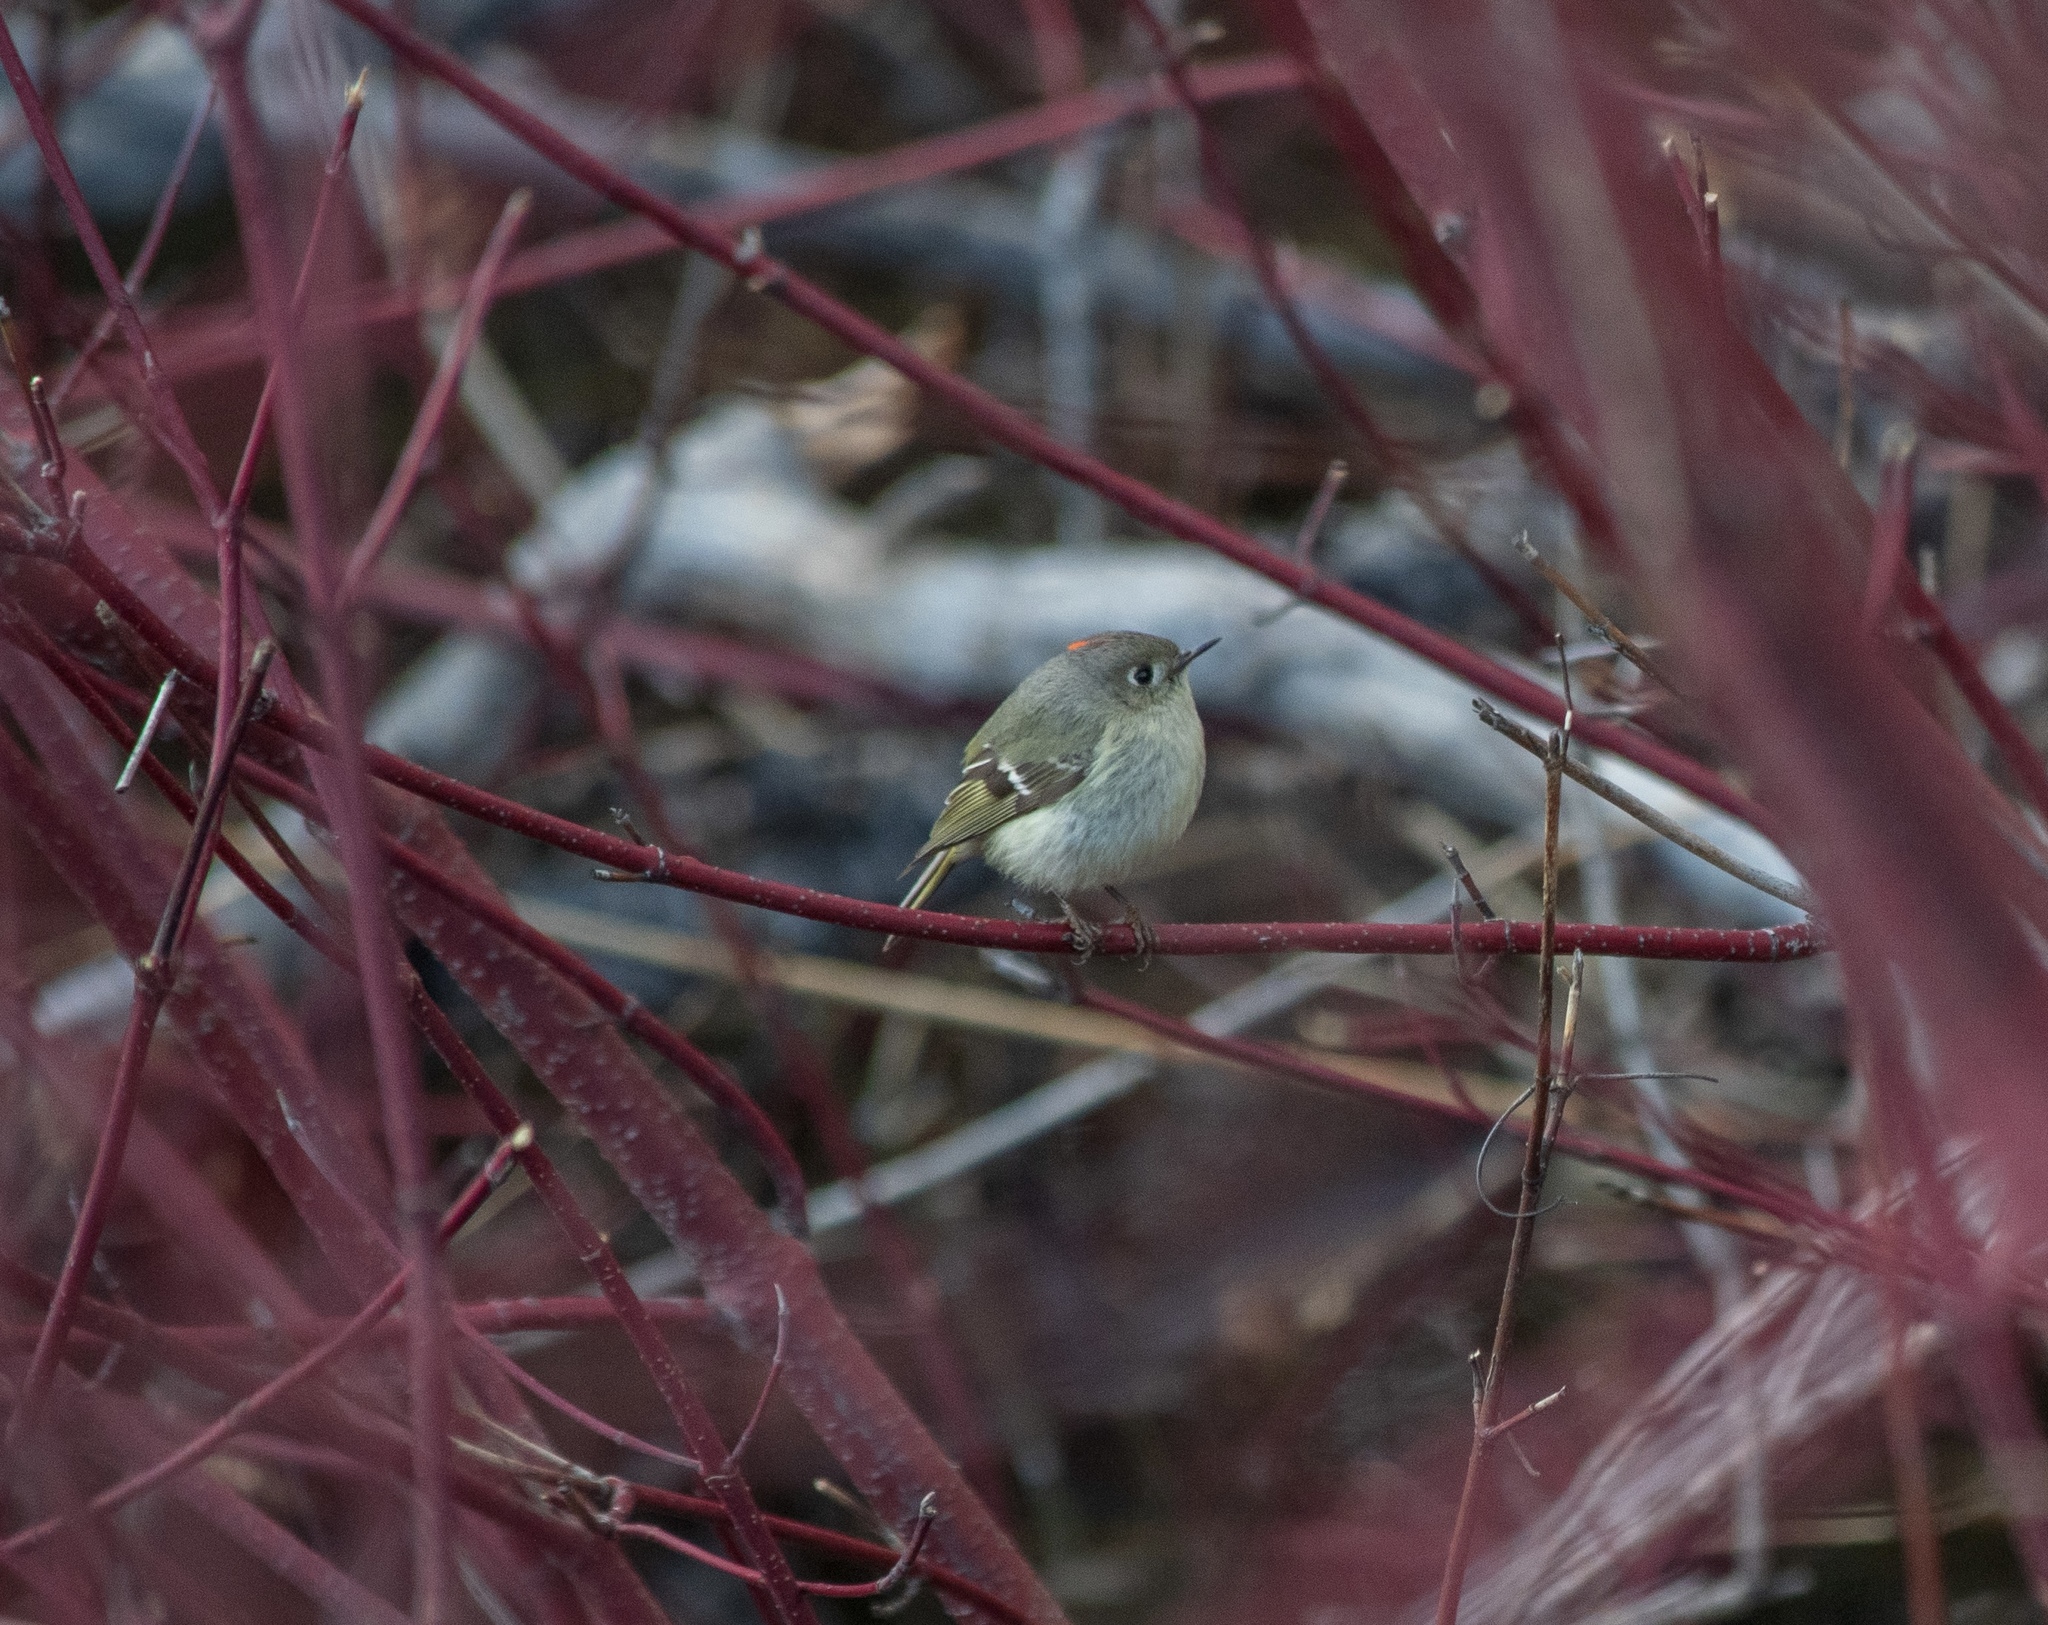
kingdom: Animalia
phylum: Chordata
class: Aves
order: Passeriformes
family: Regulidae
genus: Regulus
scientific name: Regulus calendula
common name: Ruby-crowned kinglet
